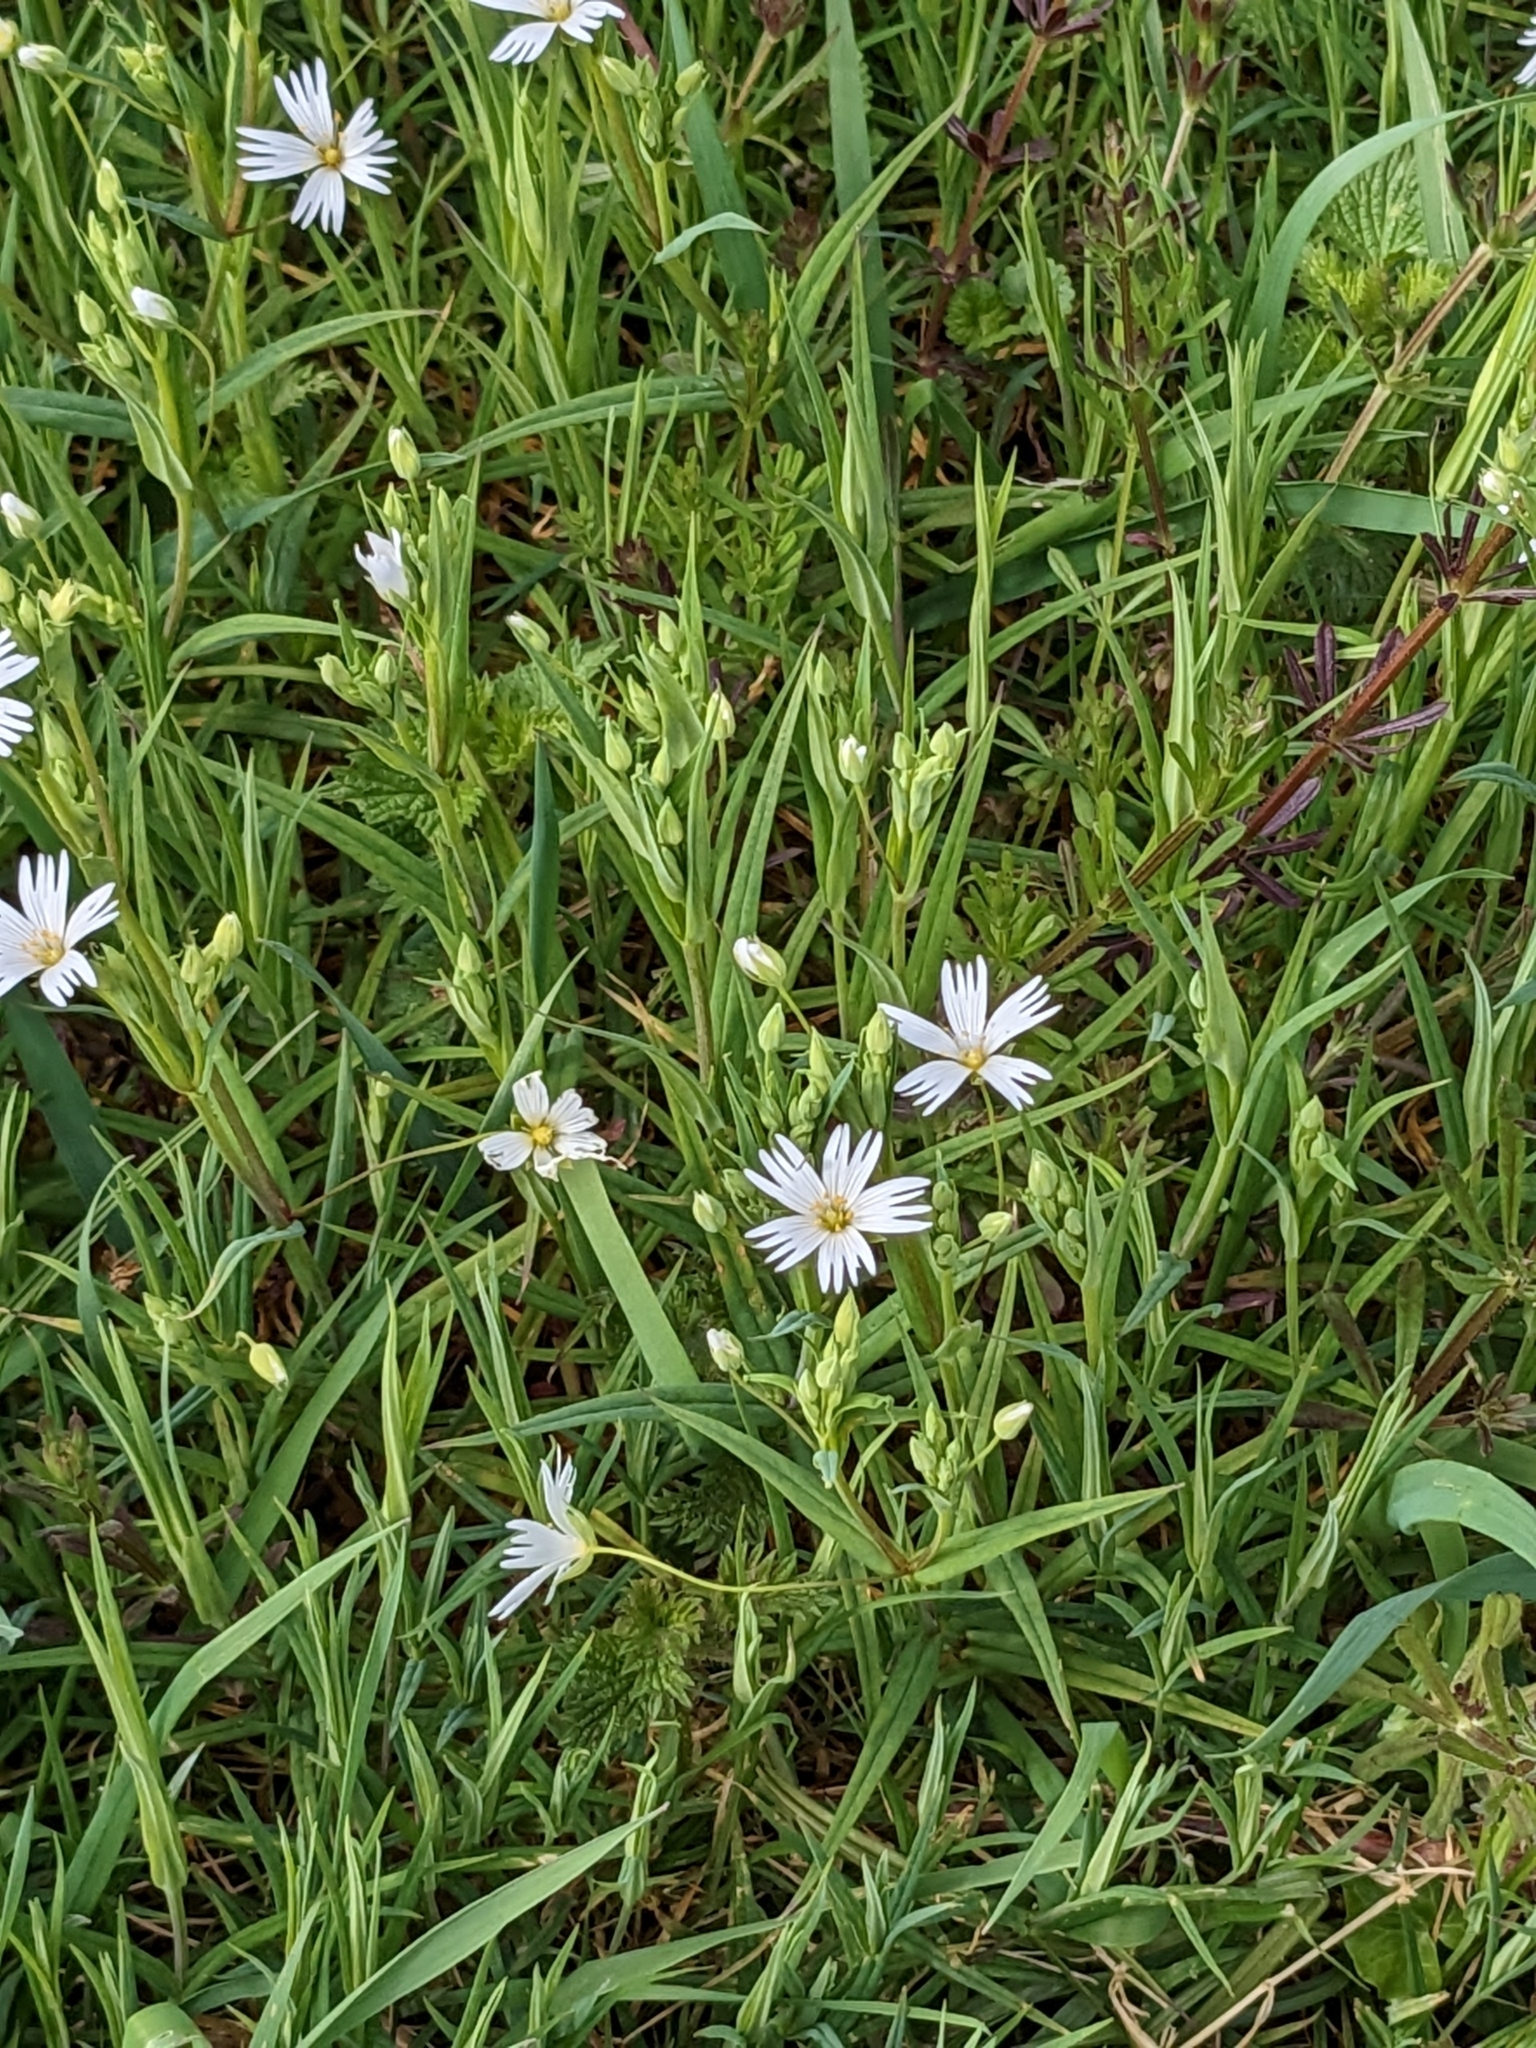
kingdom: Plantae
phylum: Tracheophyta
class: Magnoliopsida
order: Caryophyllales
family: Caryophyllaceae
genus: Rabelera
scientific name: Rabelera holostea
